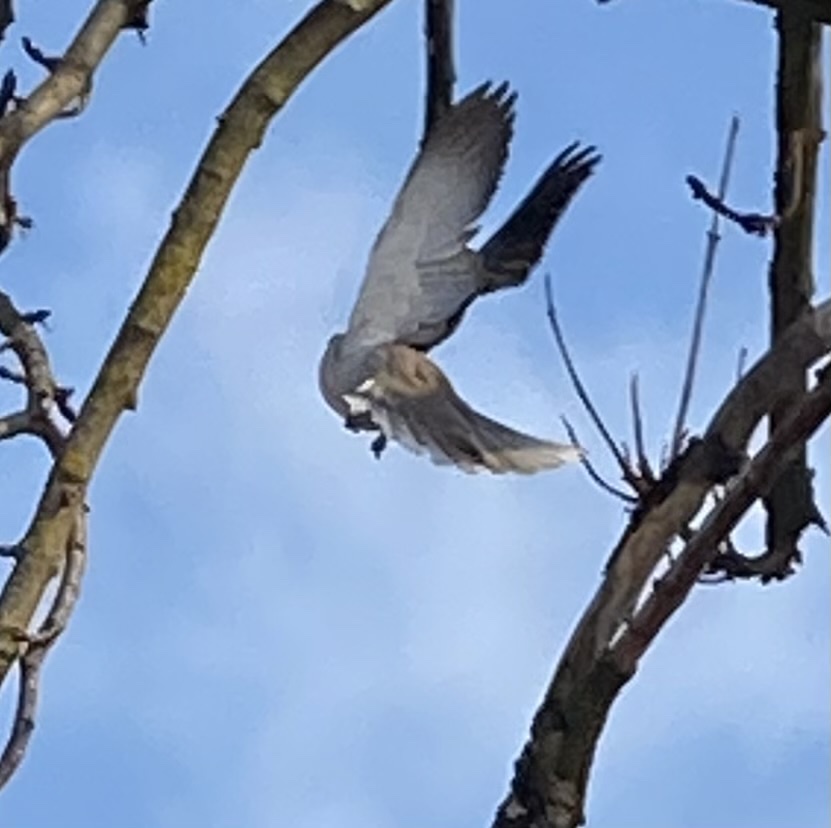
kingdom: Animalia
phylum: Chordata
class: Aves
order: Columbiformes
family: Columbidae
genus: Streptopelia
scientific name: Streptopelia decaocto
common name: Eurasian collared dove
